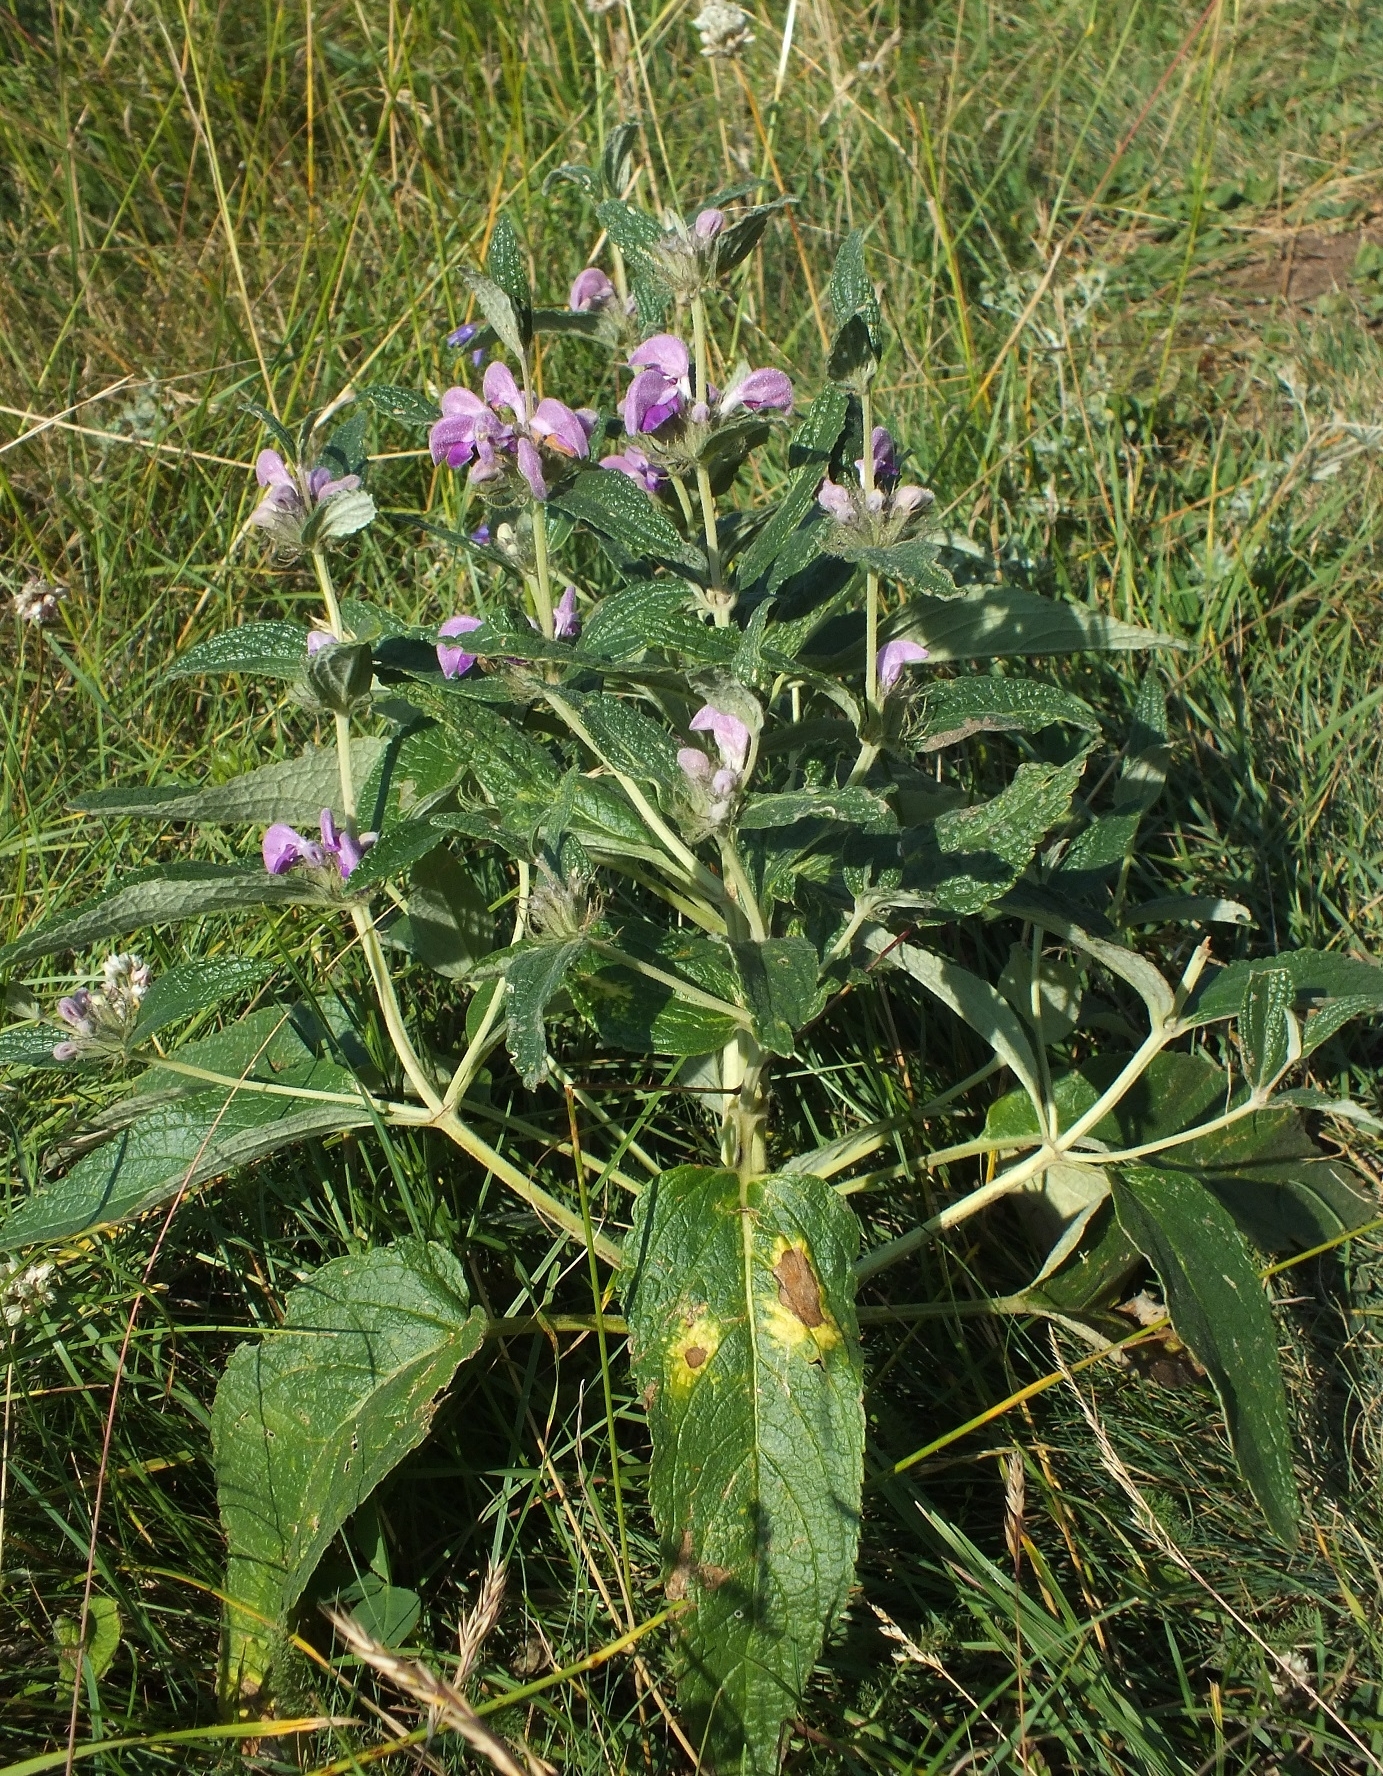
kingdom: Plantae
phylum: Tracheophyta
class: Magnoliopsida
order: Lamiales
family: Lamiaceae
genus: Phlomis
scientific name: Phlomis herba-venti
